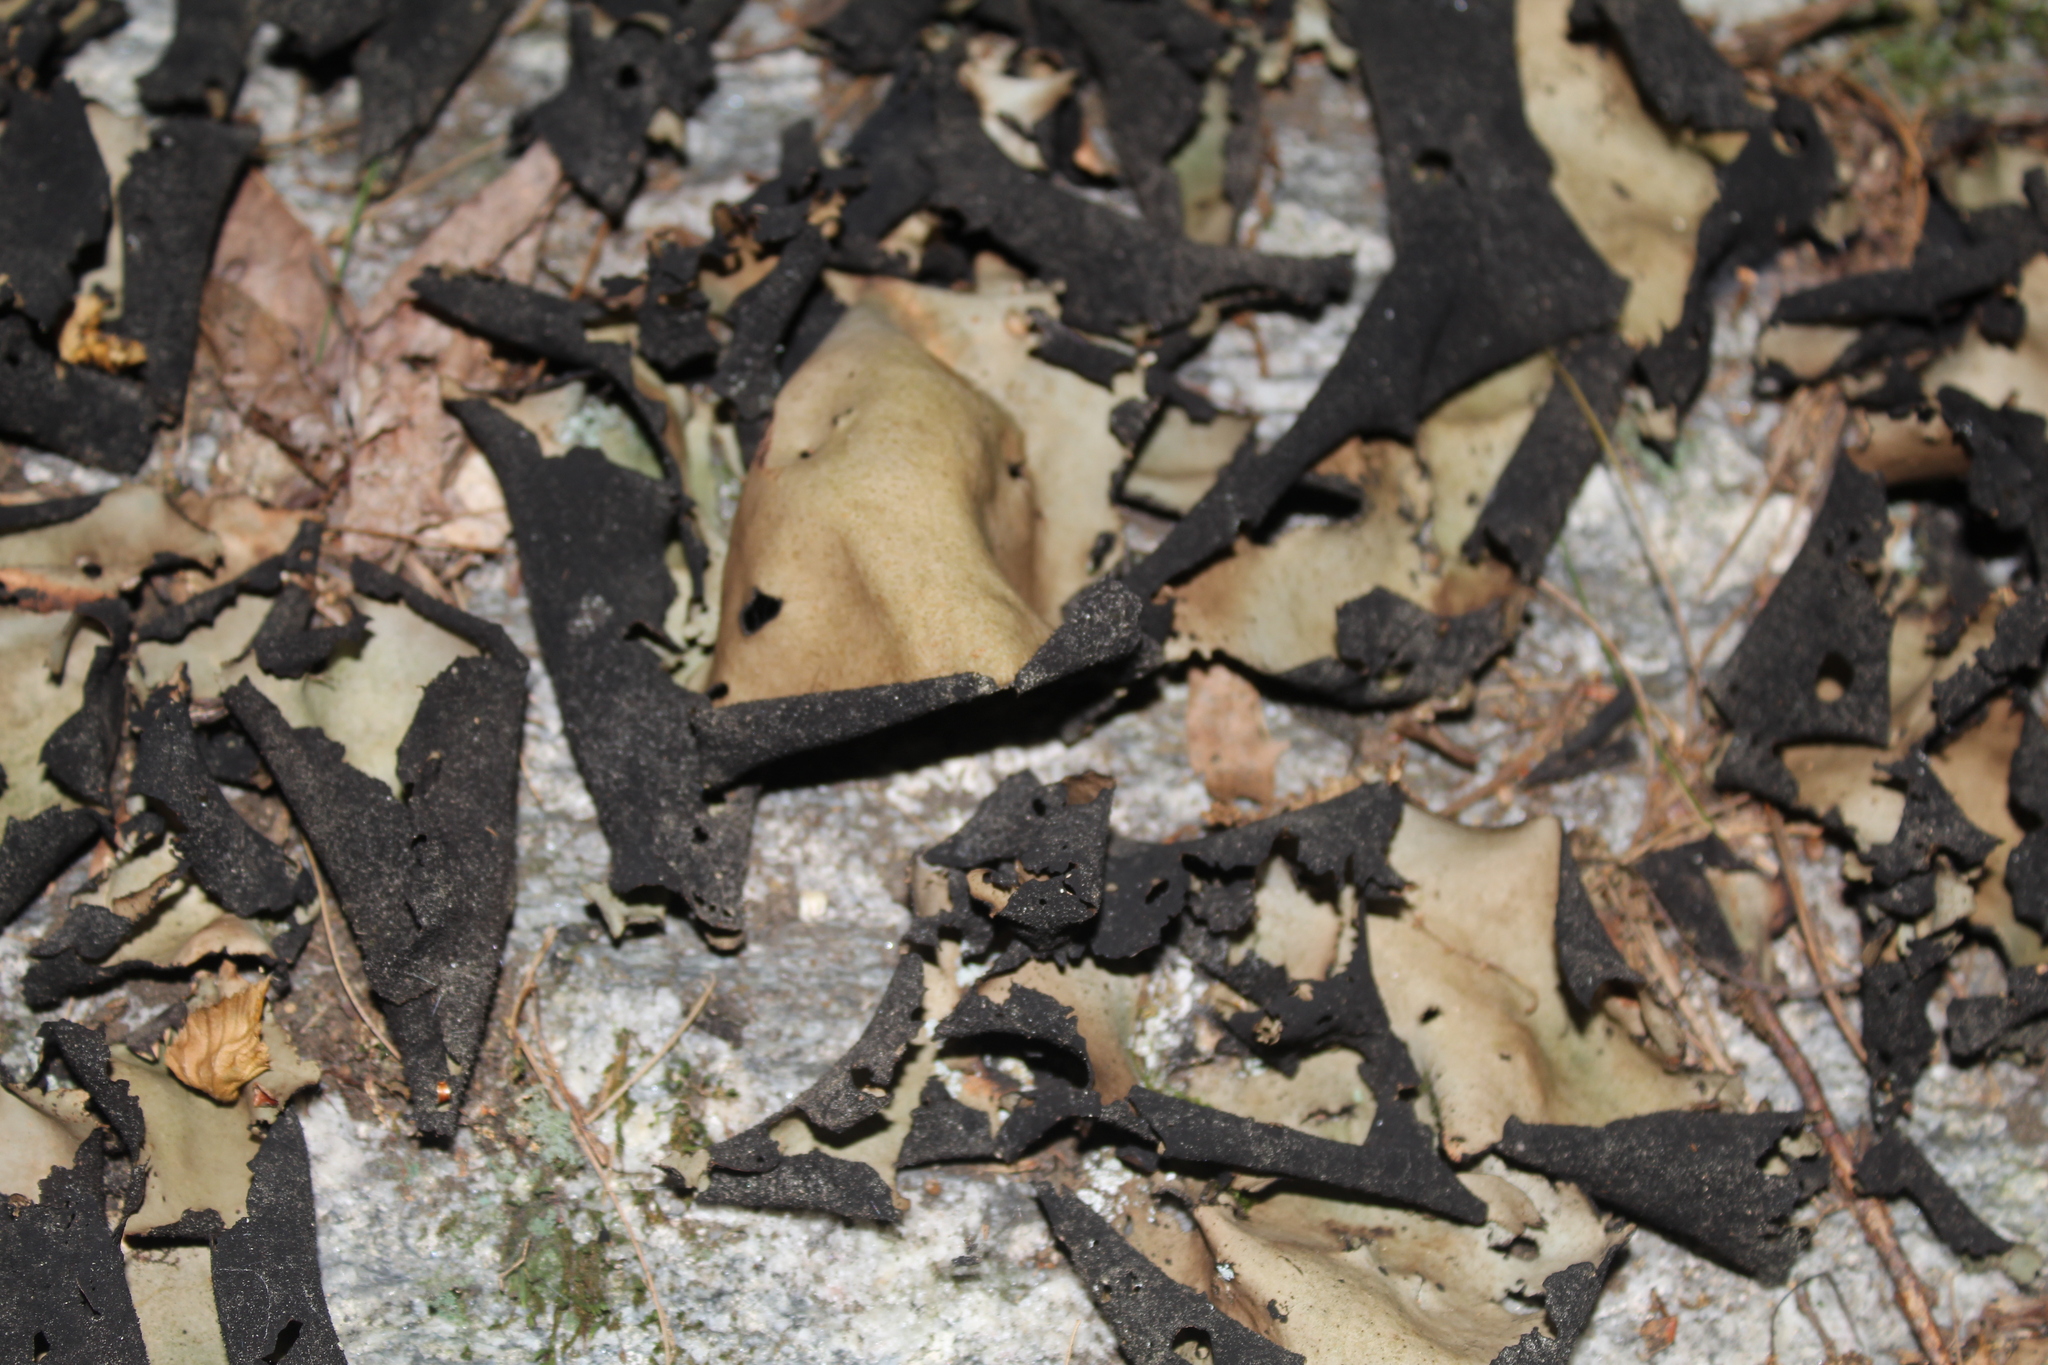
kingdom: Fungi
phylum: Ascomycota
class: Lecanoromycetes
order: Umbilicariales
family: Umbilicariaceae
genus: Umbilicaria
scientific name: Umbilicaria mammulata
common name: Smooth rock tripe
